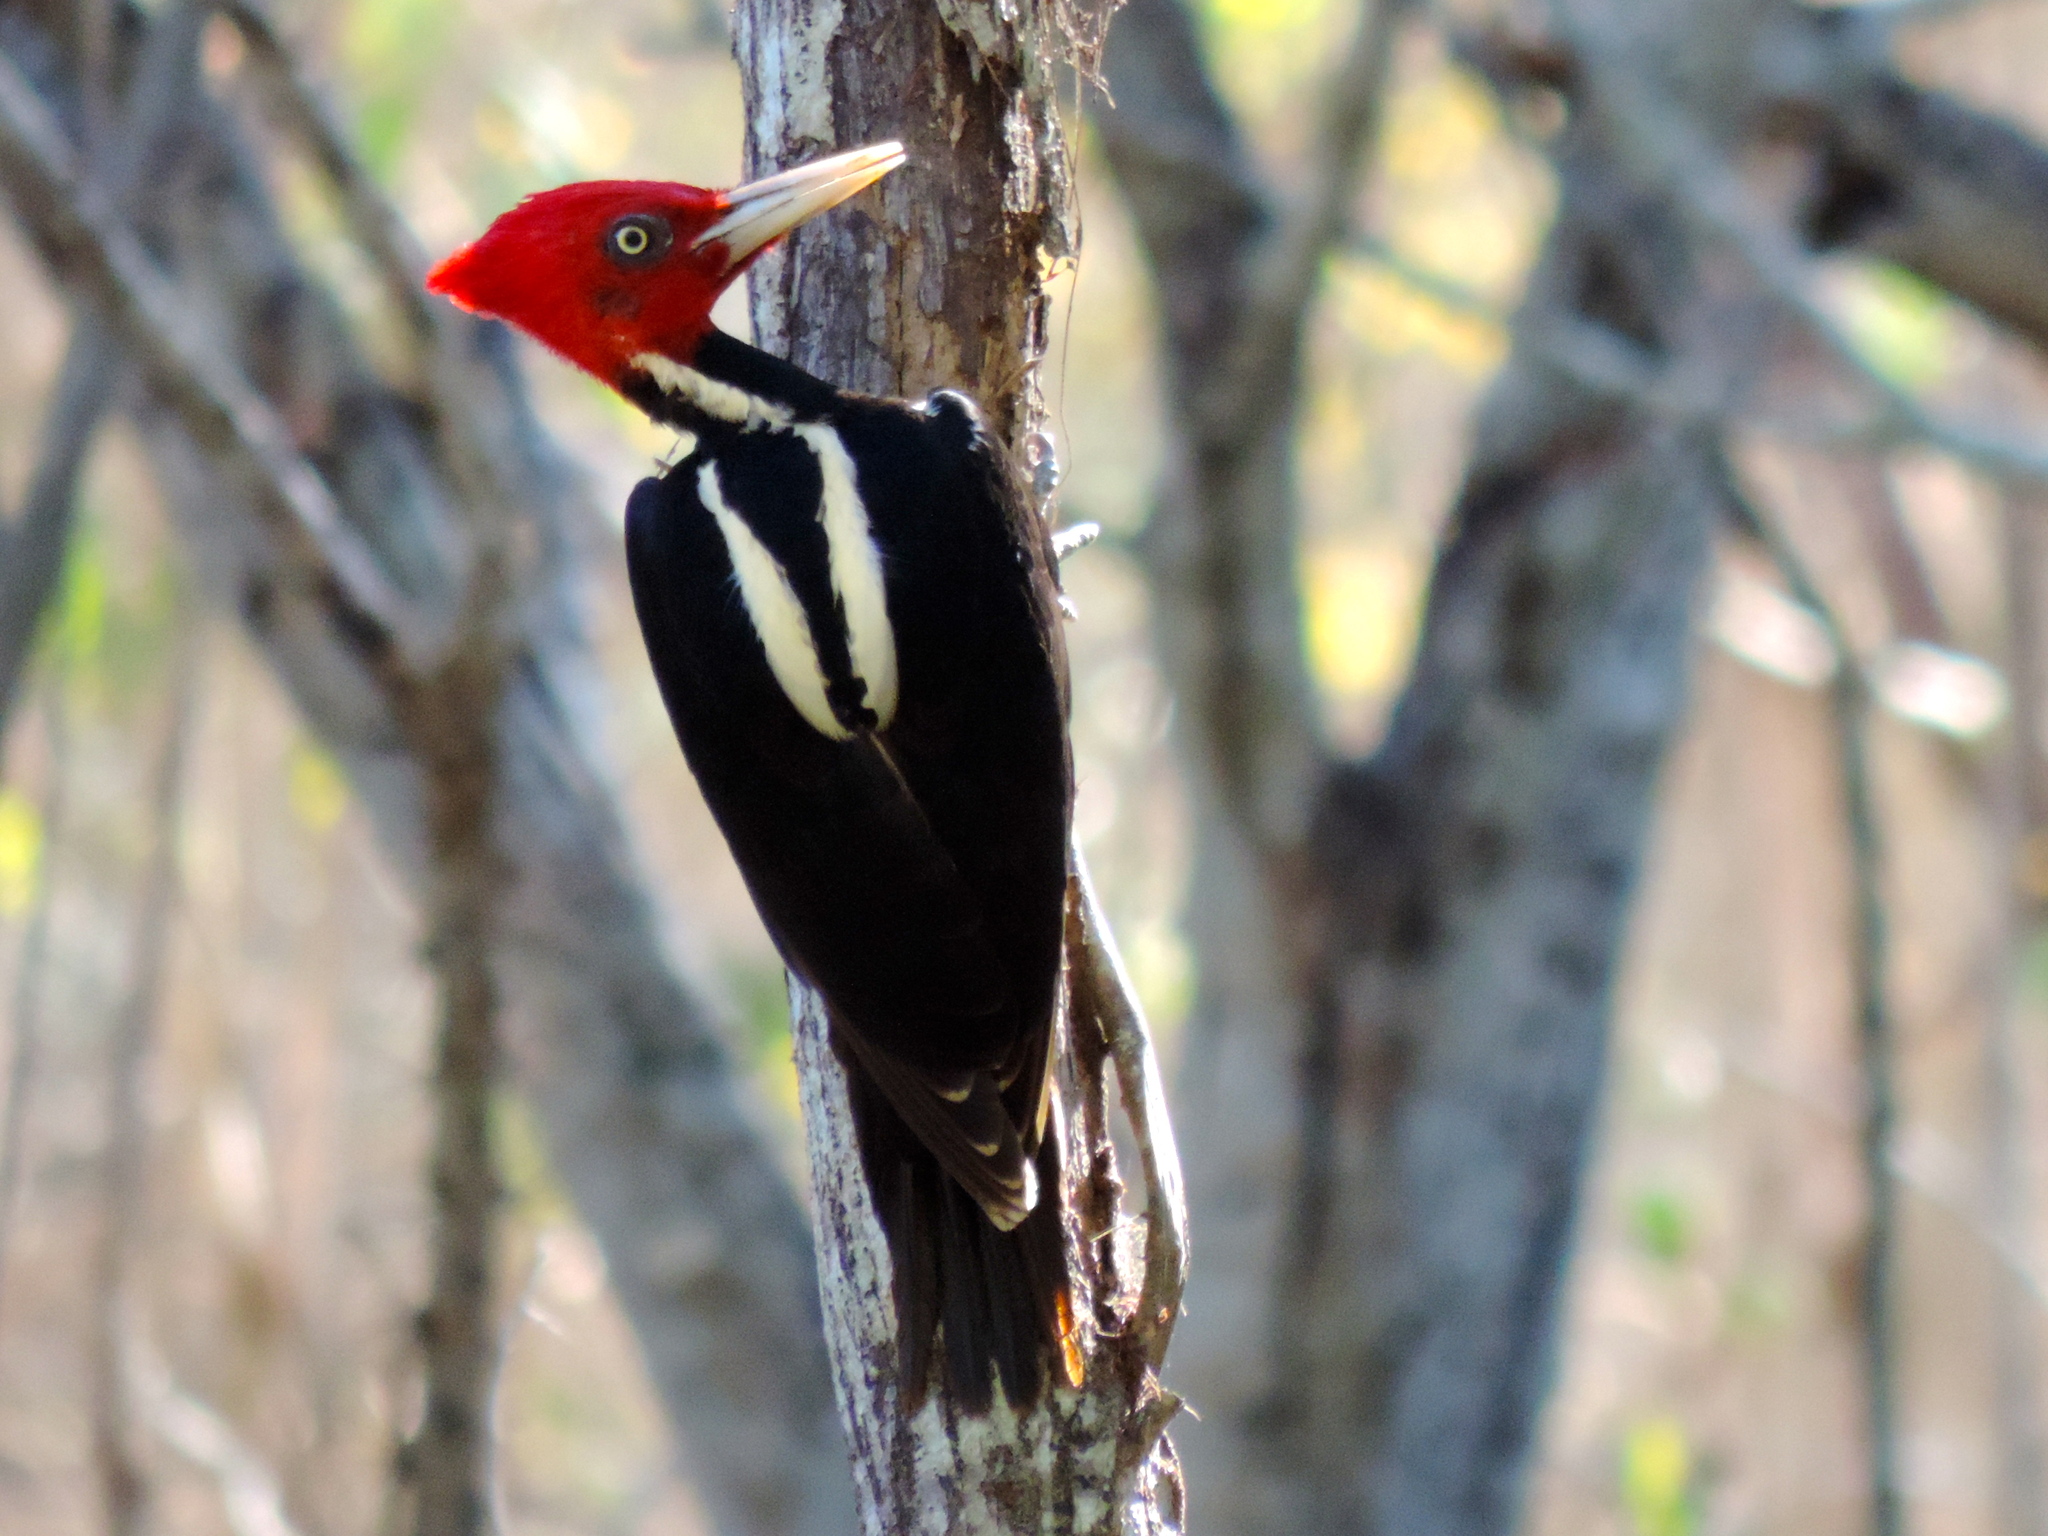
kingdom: Animalia
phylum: Chordata
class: Aves
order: Piciformes
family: Picidae
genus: Campephilus
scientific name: Campephilus guatemalensis
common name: Pale-billed woodpecker
